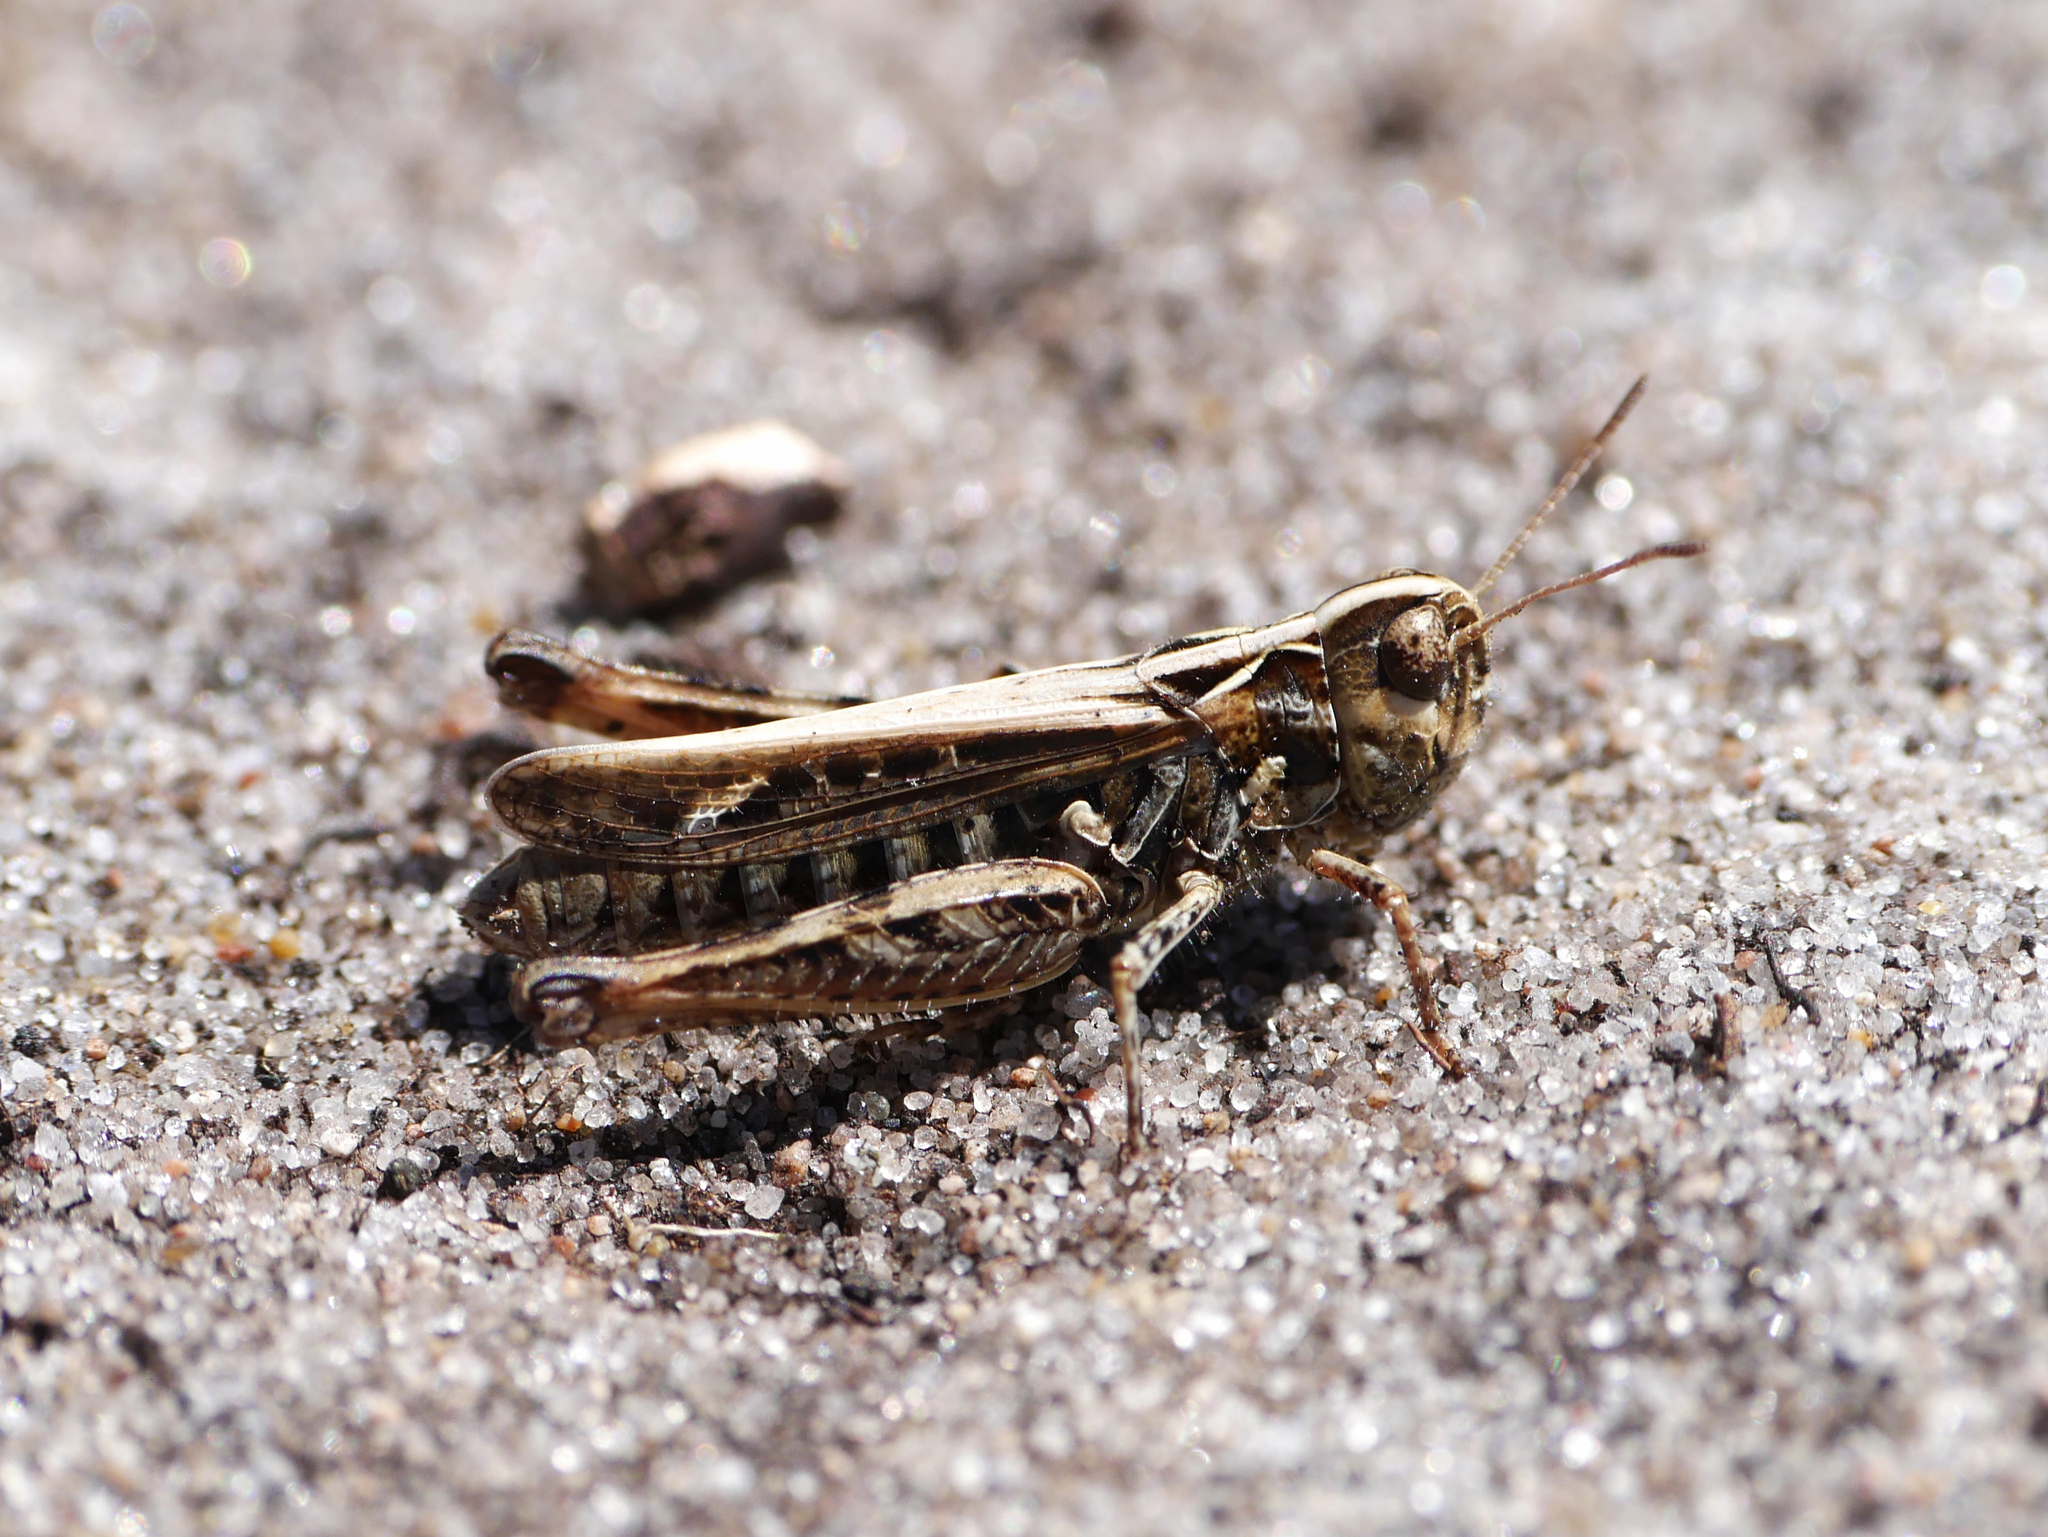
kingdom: Animalia
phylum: Arthropoda
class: Insecta
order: Orthoptera
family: Acrididae
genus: Myrmeleotettix
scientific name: Myrmeleotettix maculatus
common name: Mottled grasshopper
